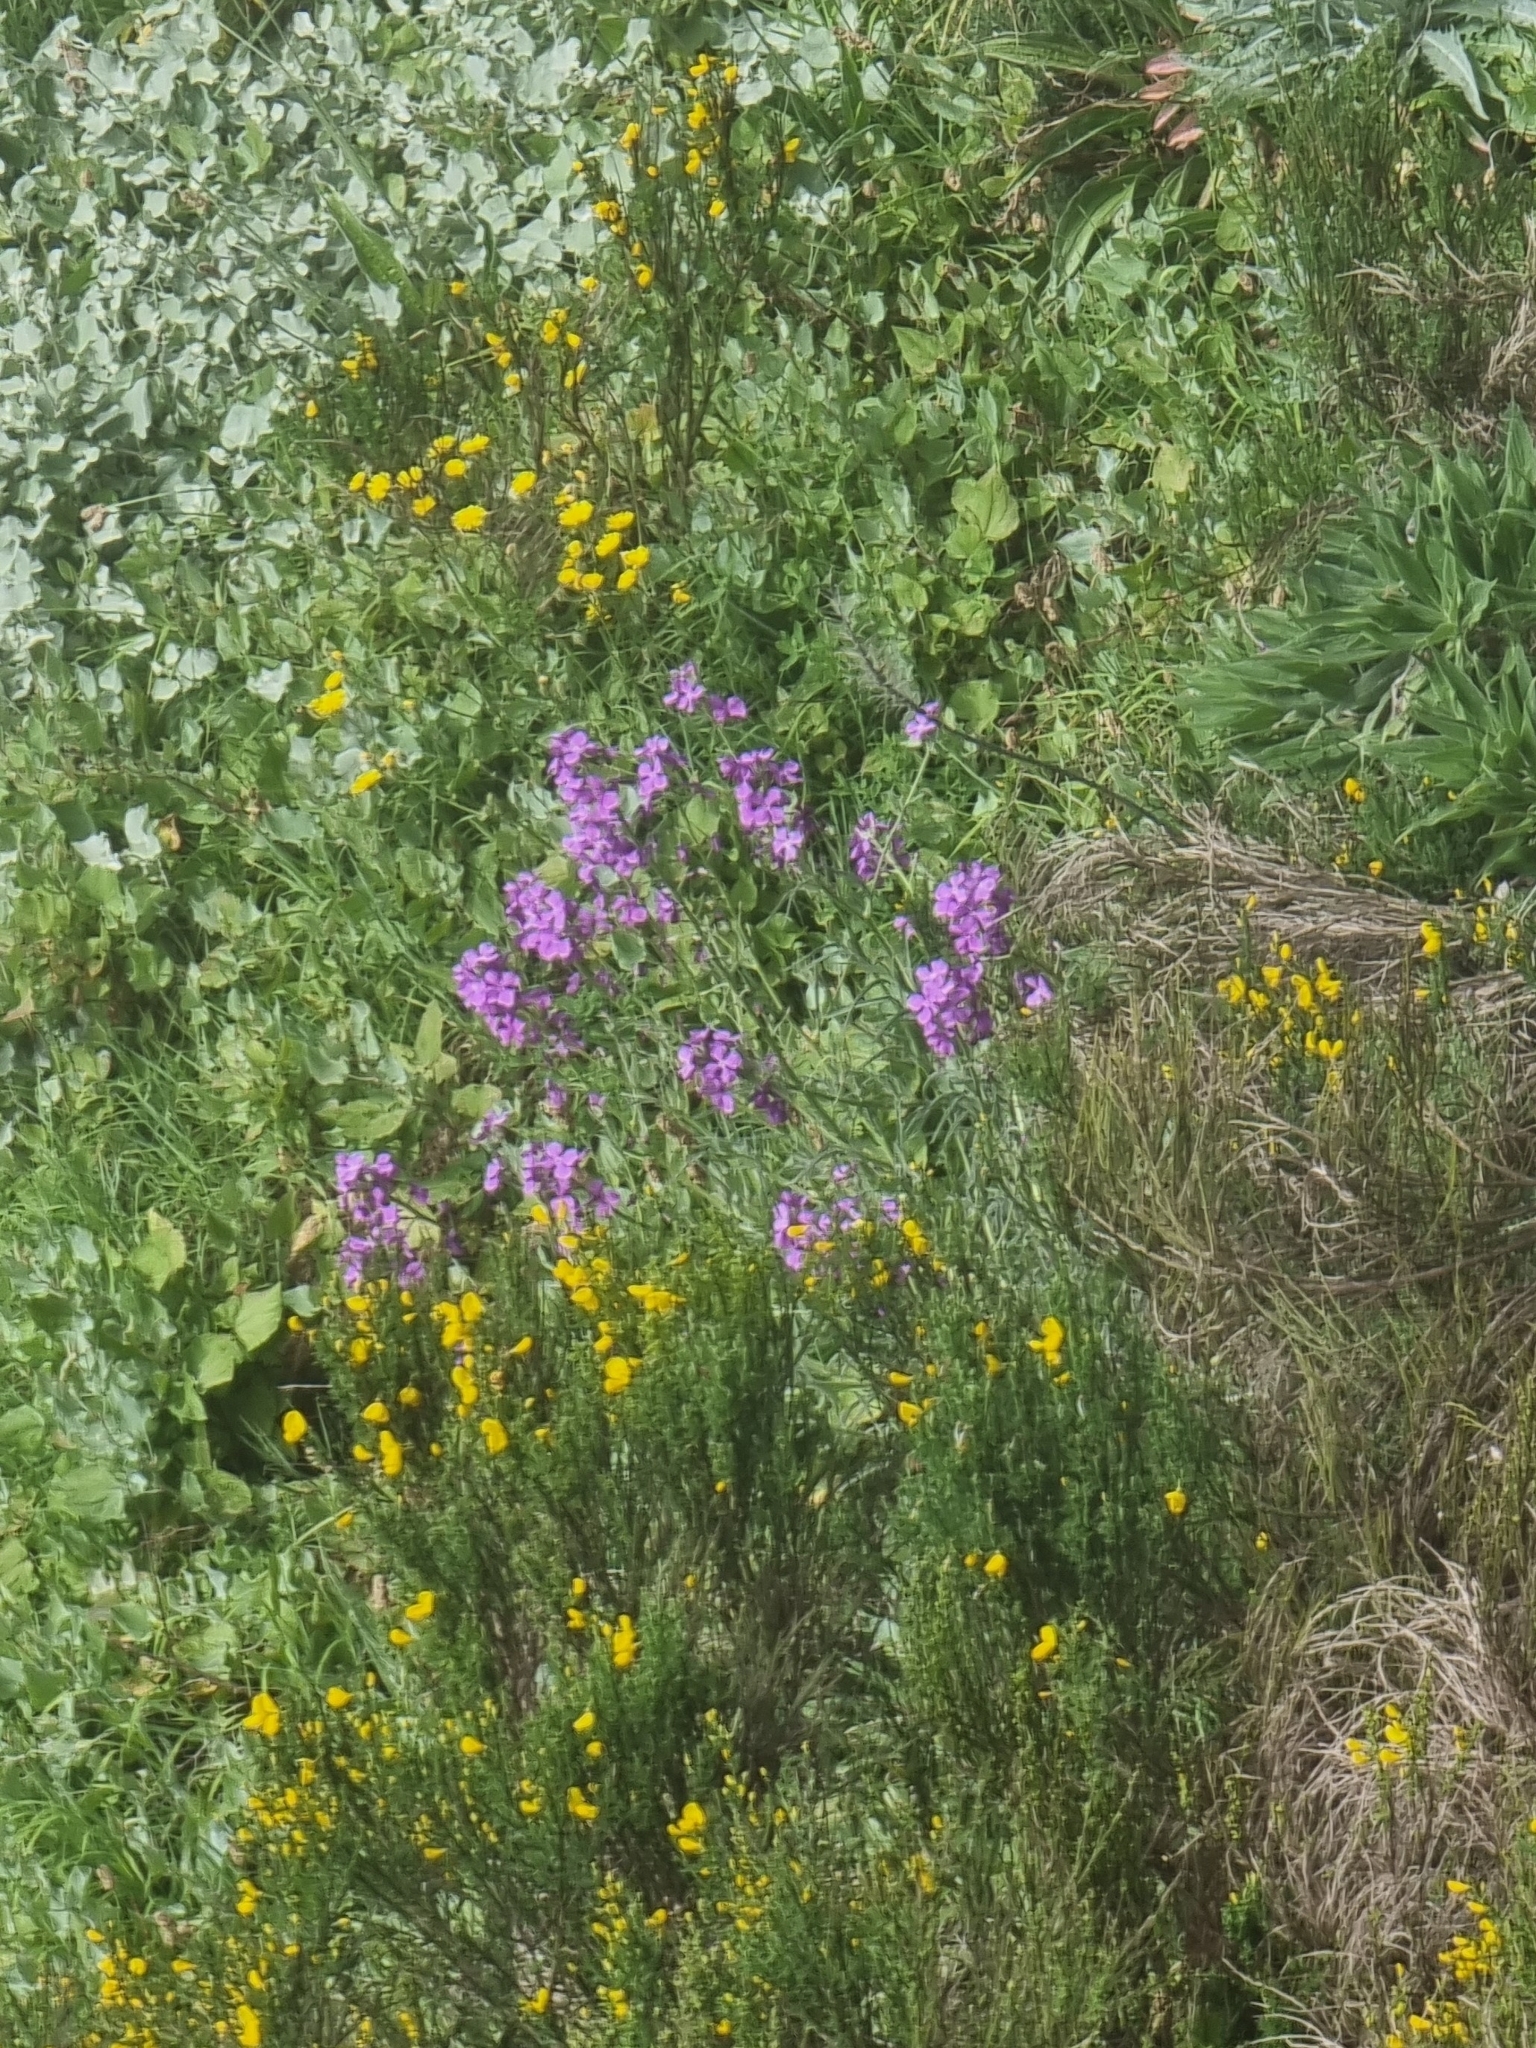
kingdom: Plantae
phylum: Tracheophyta
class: Magnoliopsida
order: Brassicales
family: Brassicaceae
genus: Matthiola
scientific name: Matthiola maderensis
